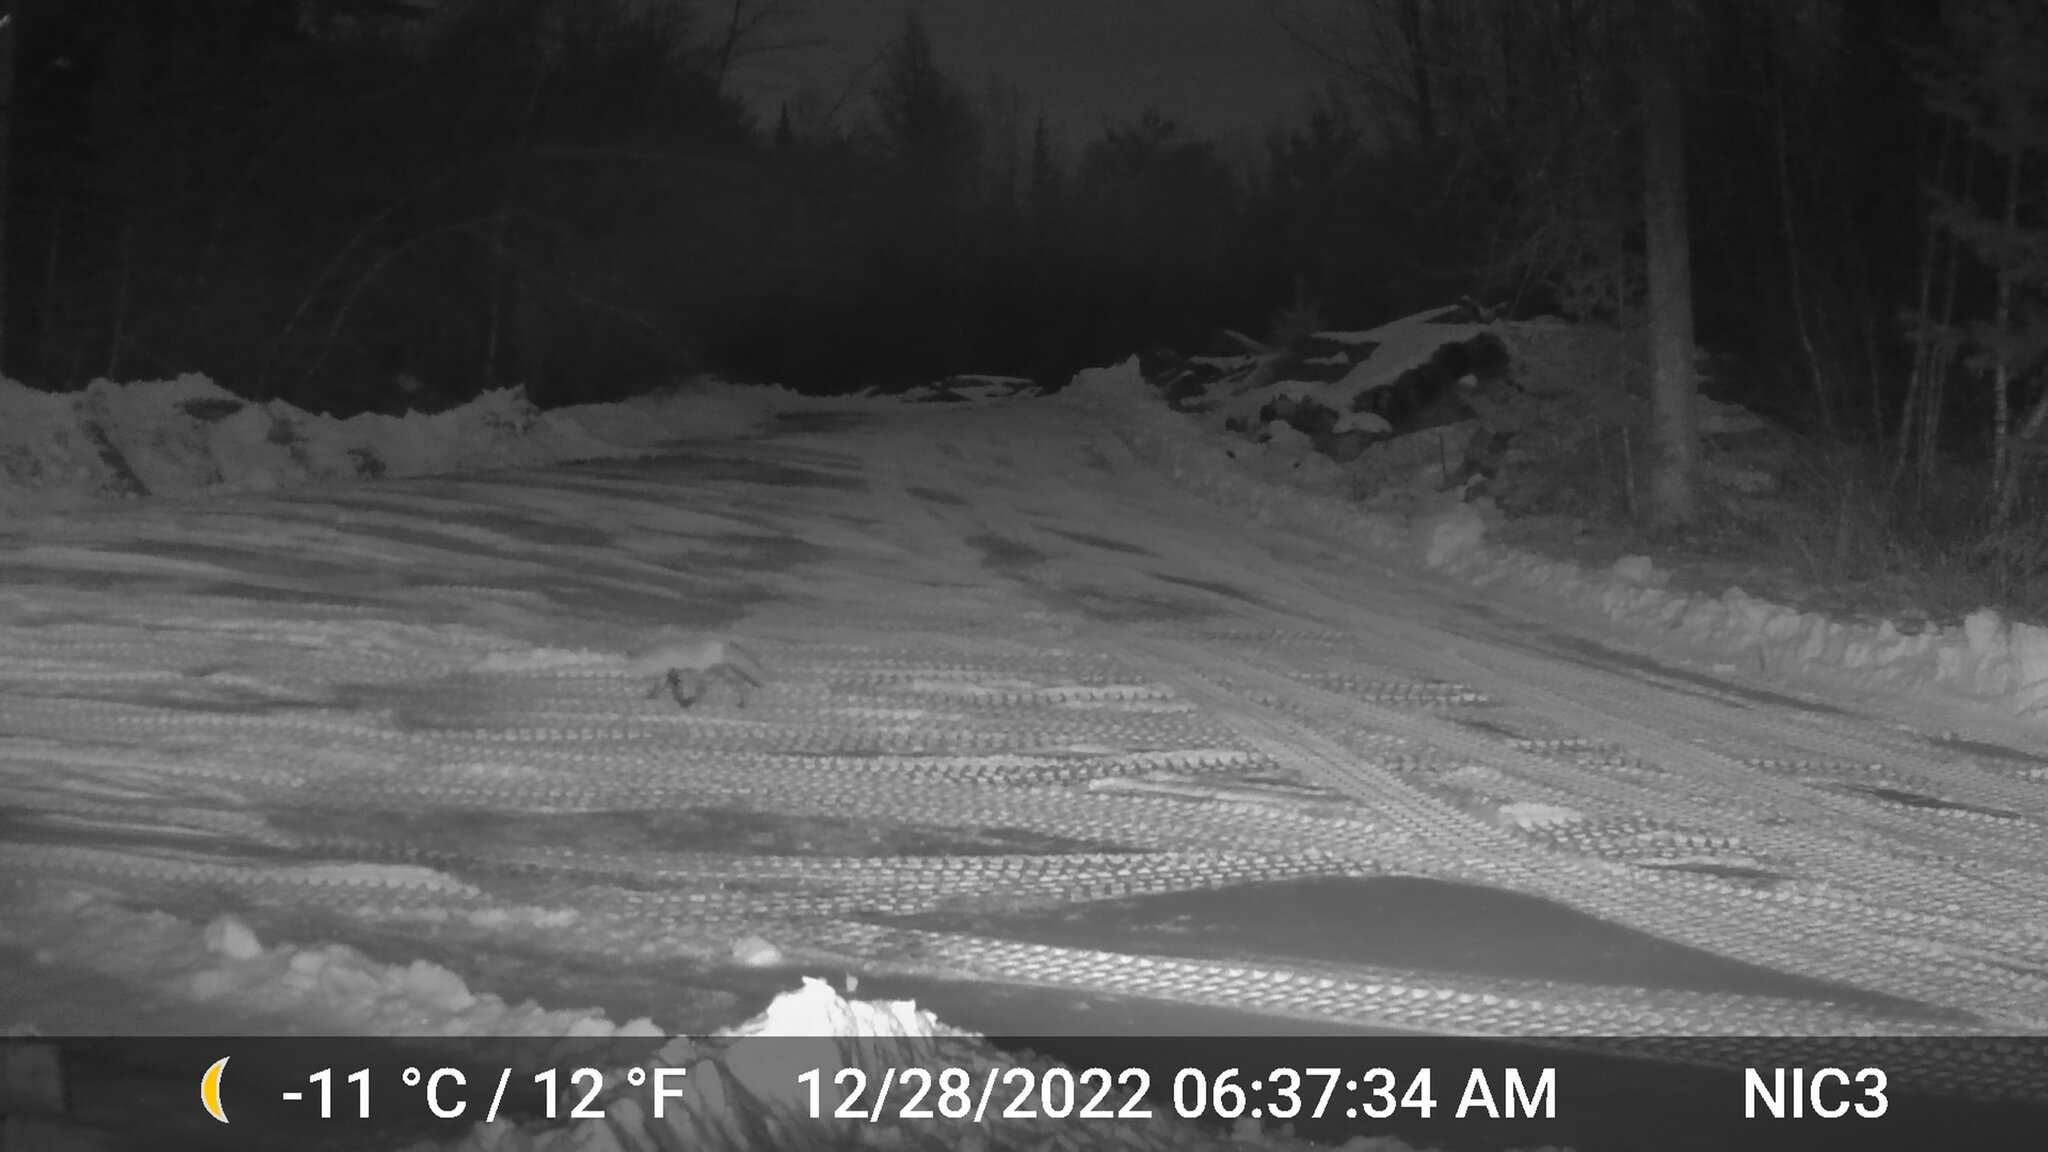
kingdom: Animalia
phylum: Chordata
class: Mammalia
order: Carnivora
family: Canidae
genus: Vulpes
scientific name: Vulpes vulpes
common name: Red fox
